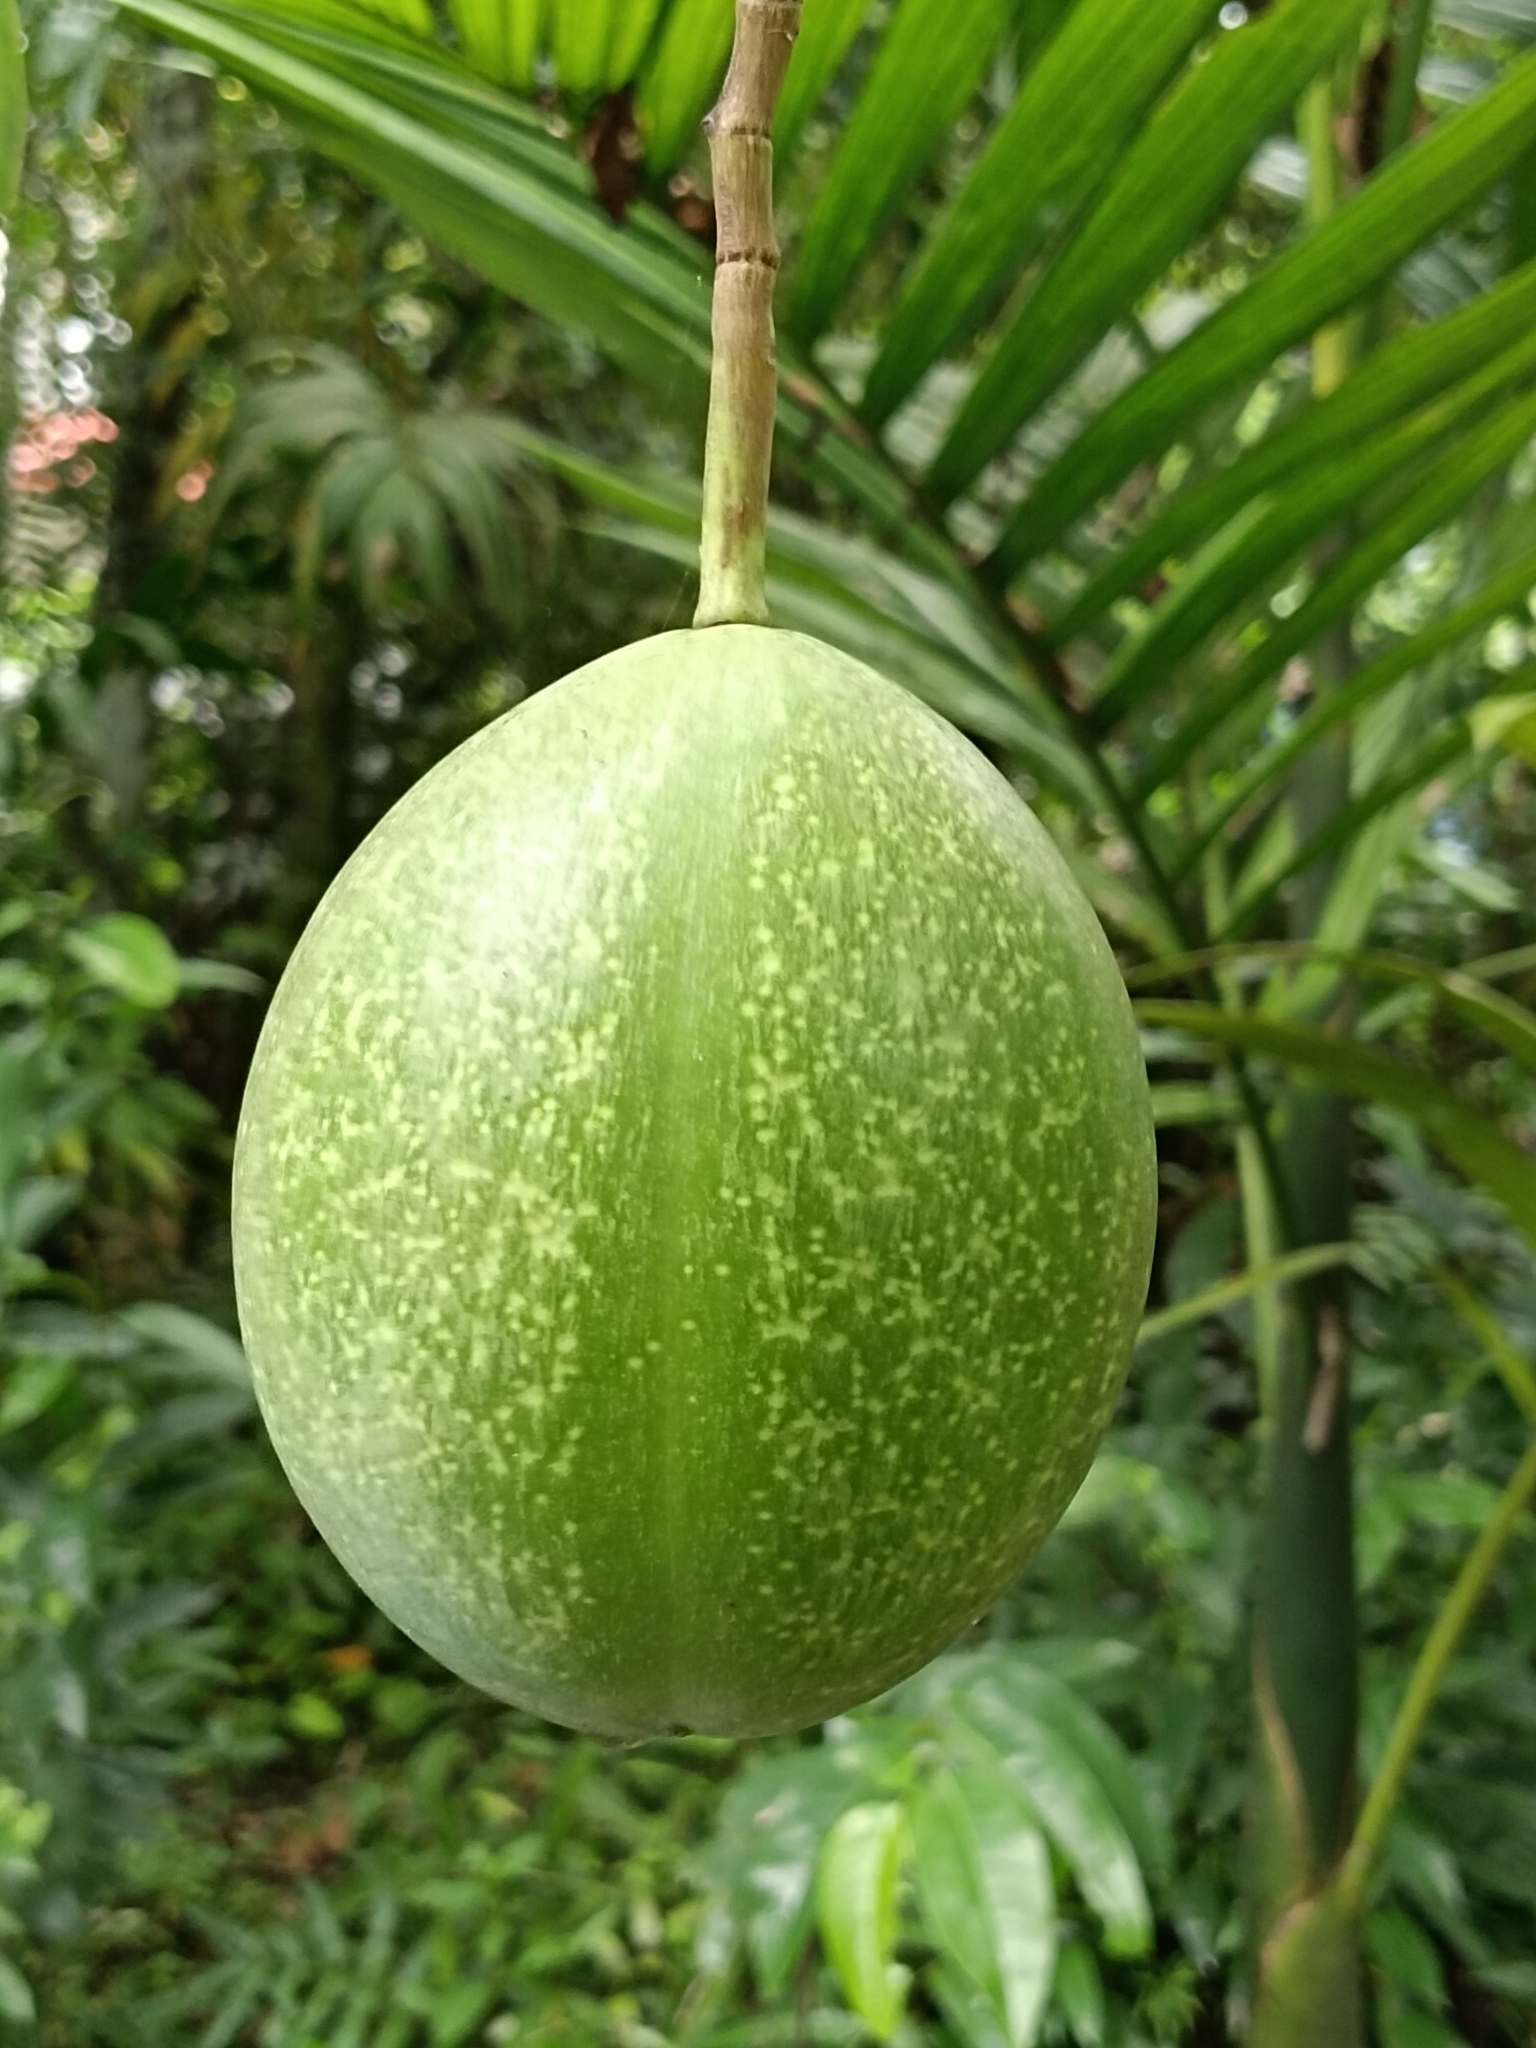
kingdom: Plantae
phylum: Tracheophyta
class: Magnoliopsida
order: Gentianales
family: Apocynaceae
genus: Cerbera
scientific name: Cerbera odollam
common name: Pong-pong
